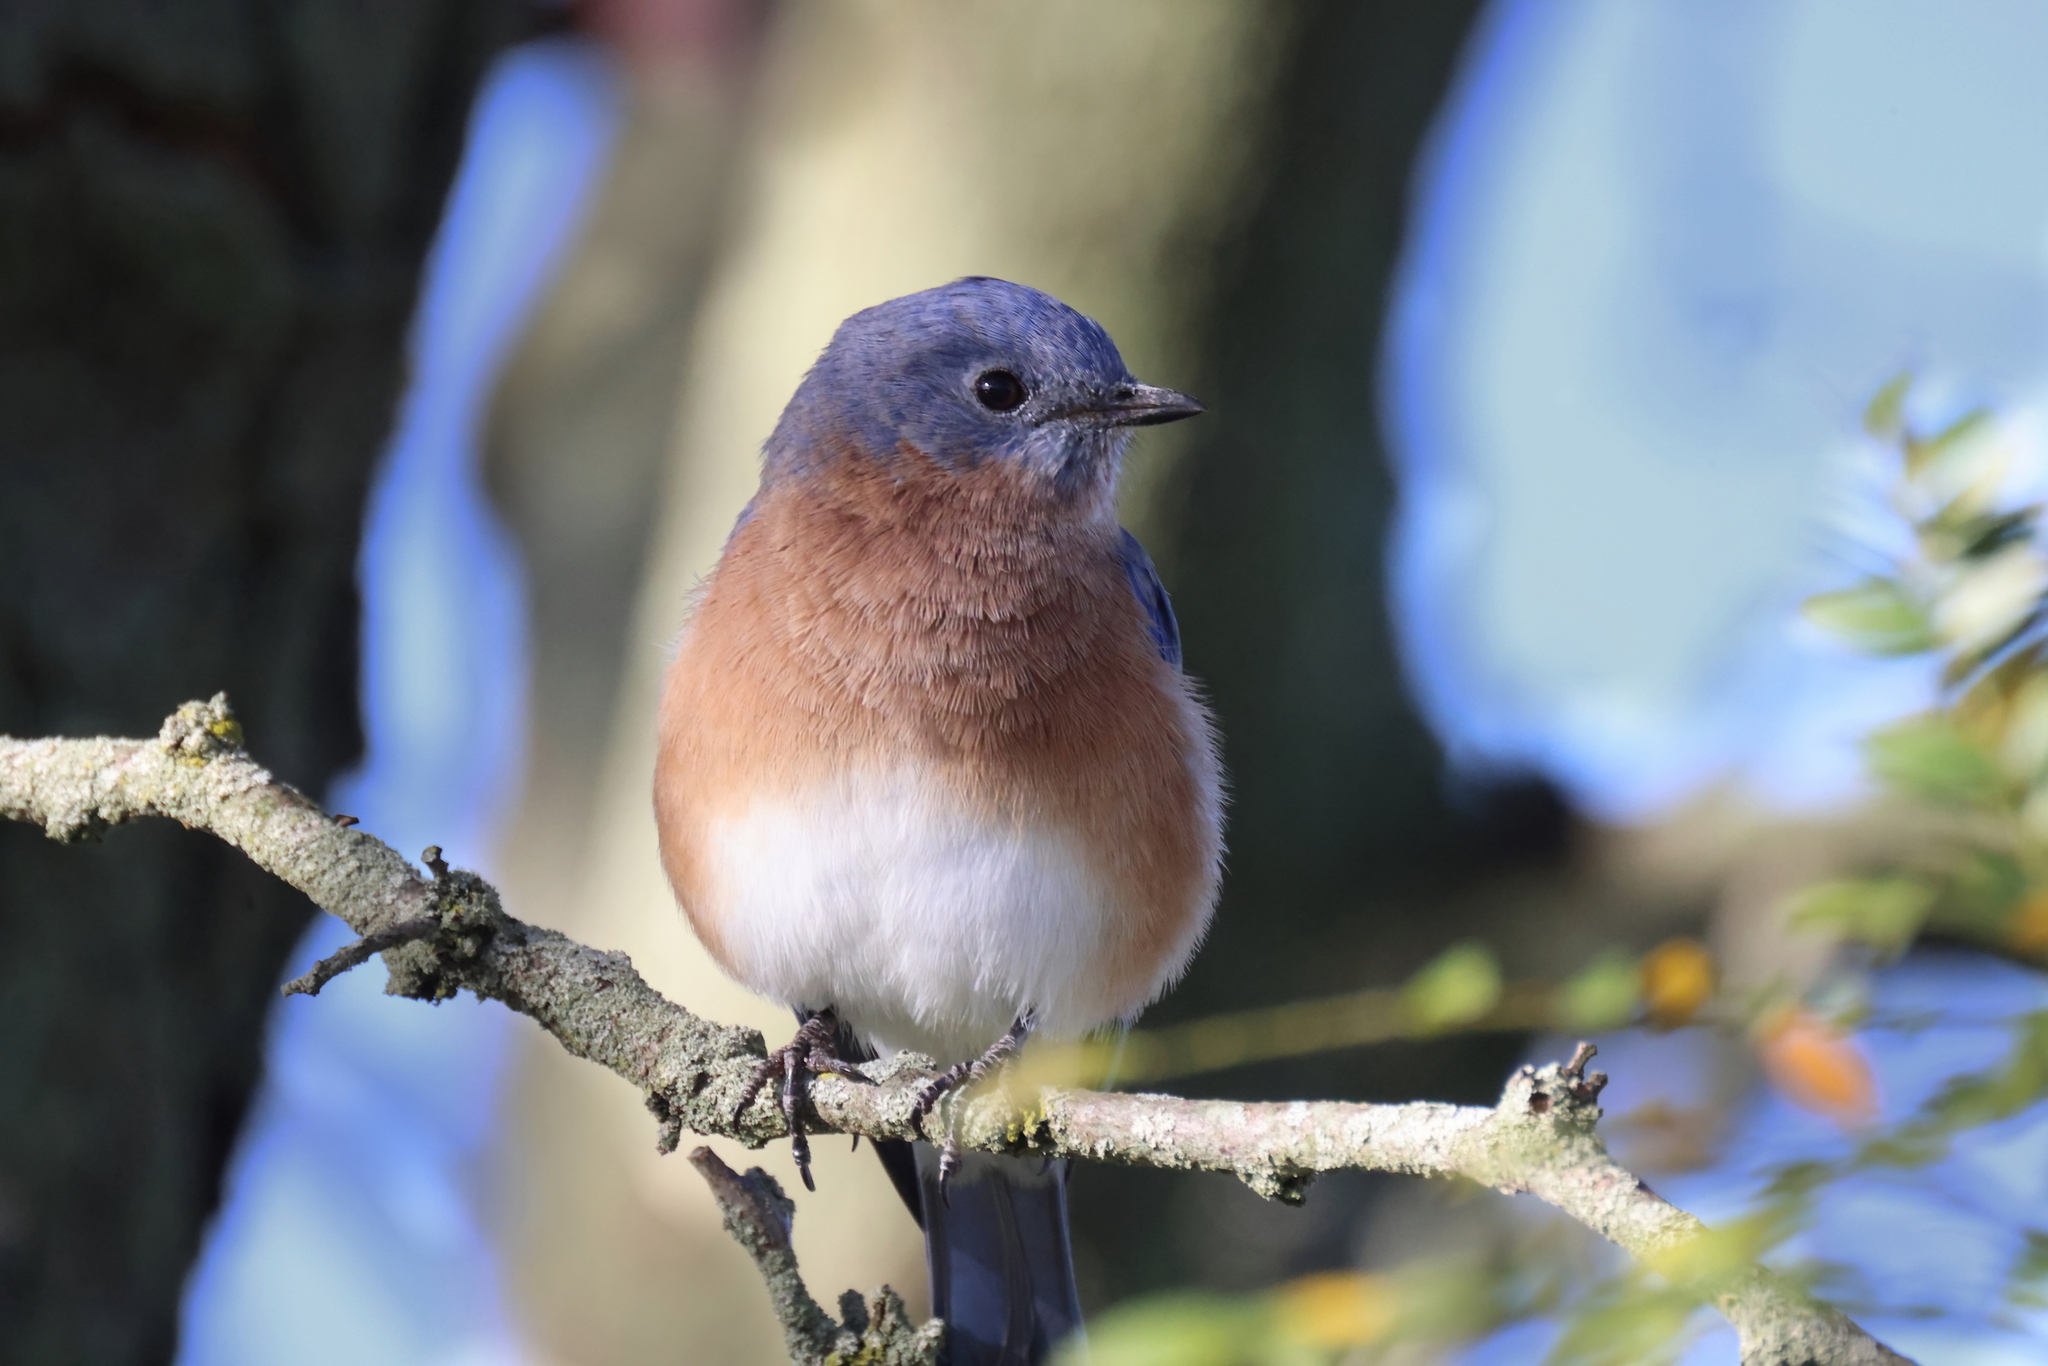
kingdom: Animalia
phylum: Chordata
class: Aves
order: Passeriformes
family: Turdidae
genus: Sialia
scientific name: Sialia sialis
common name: Eastern bluebird
